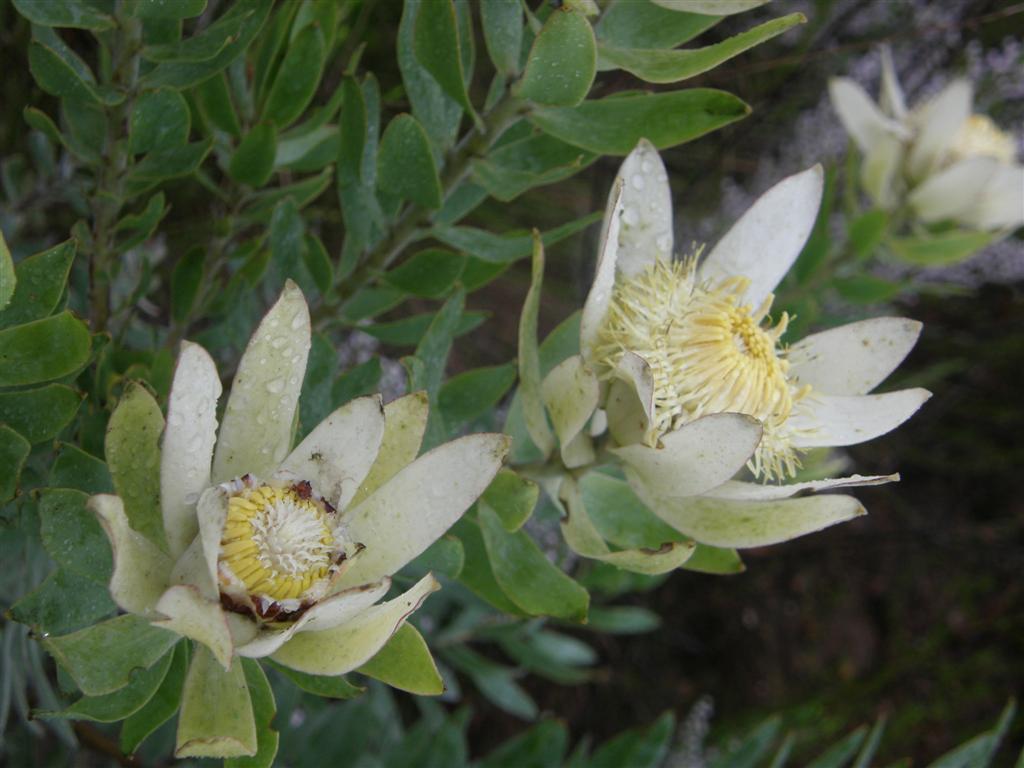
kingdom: Plantae
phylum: Tracheophyta
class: Magnoliopsida
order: Proteales
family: Proteaceae
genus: Leucadendron
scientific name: Leucadendron burchellii
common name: Riviersonderend conebush
